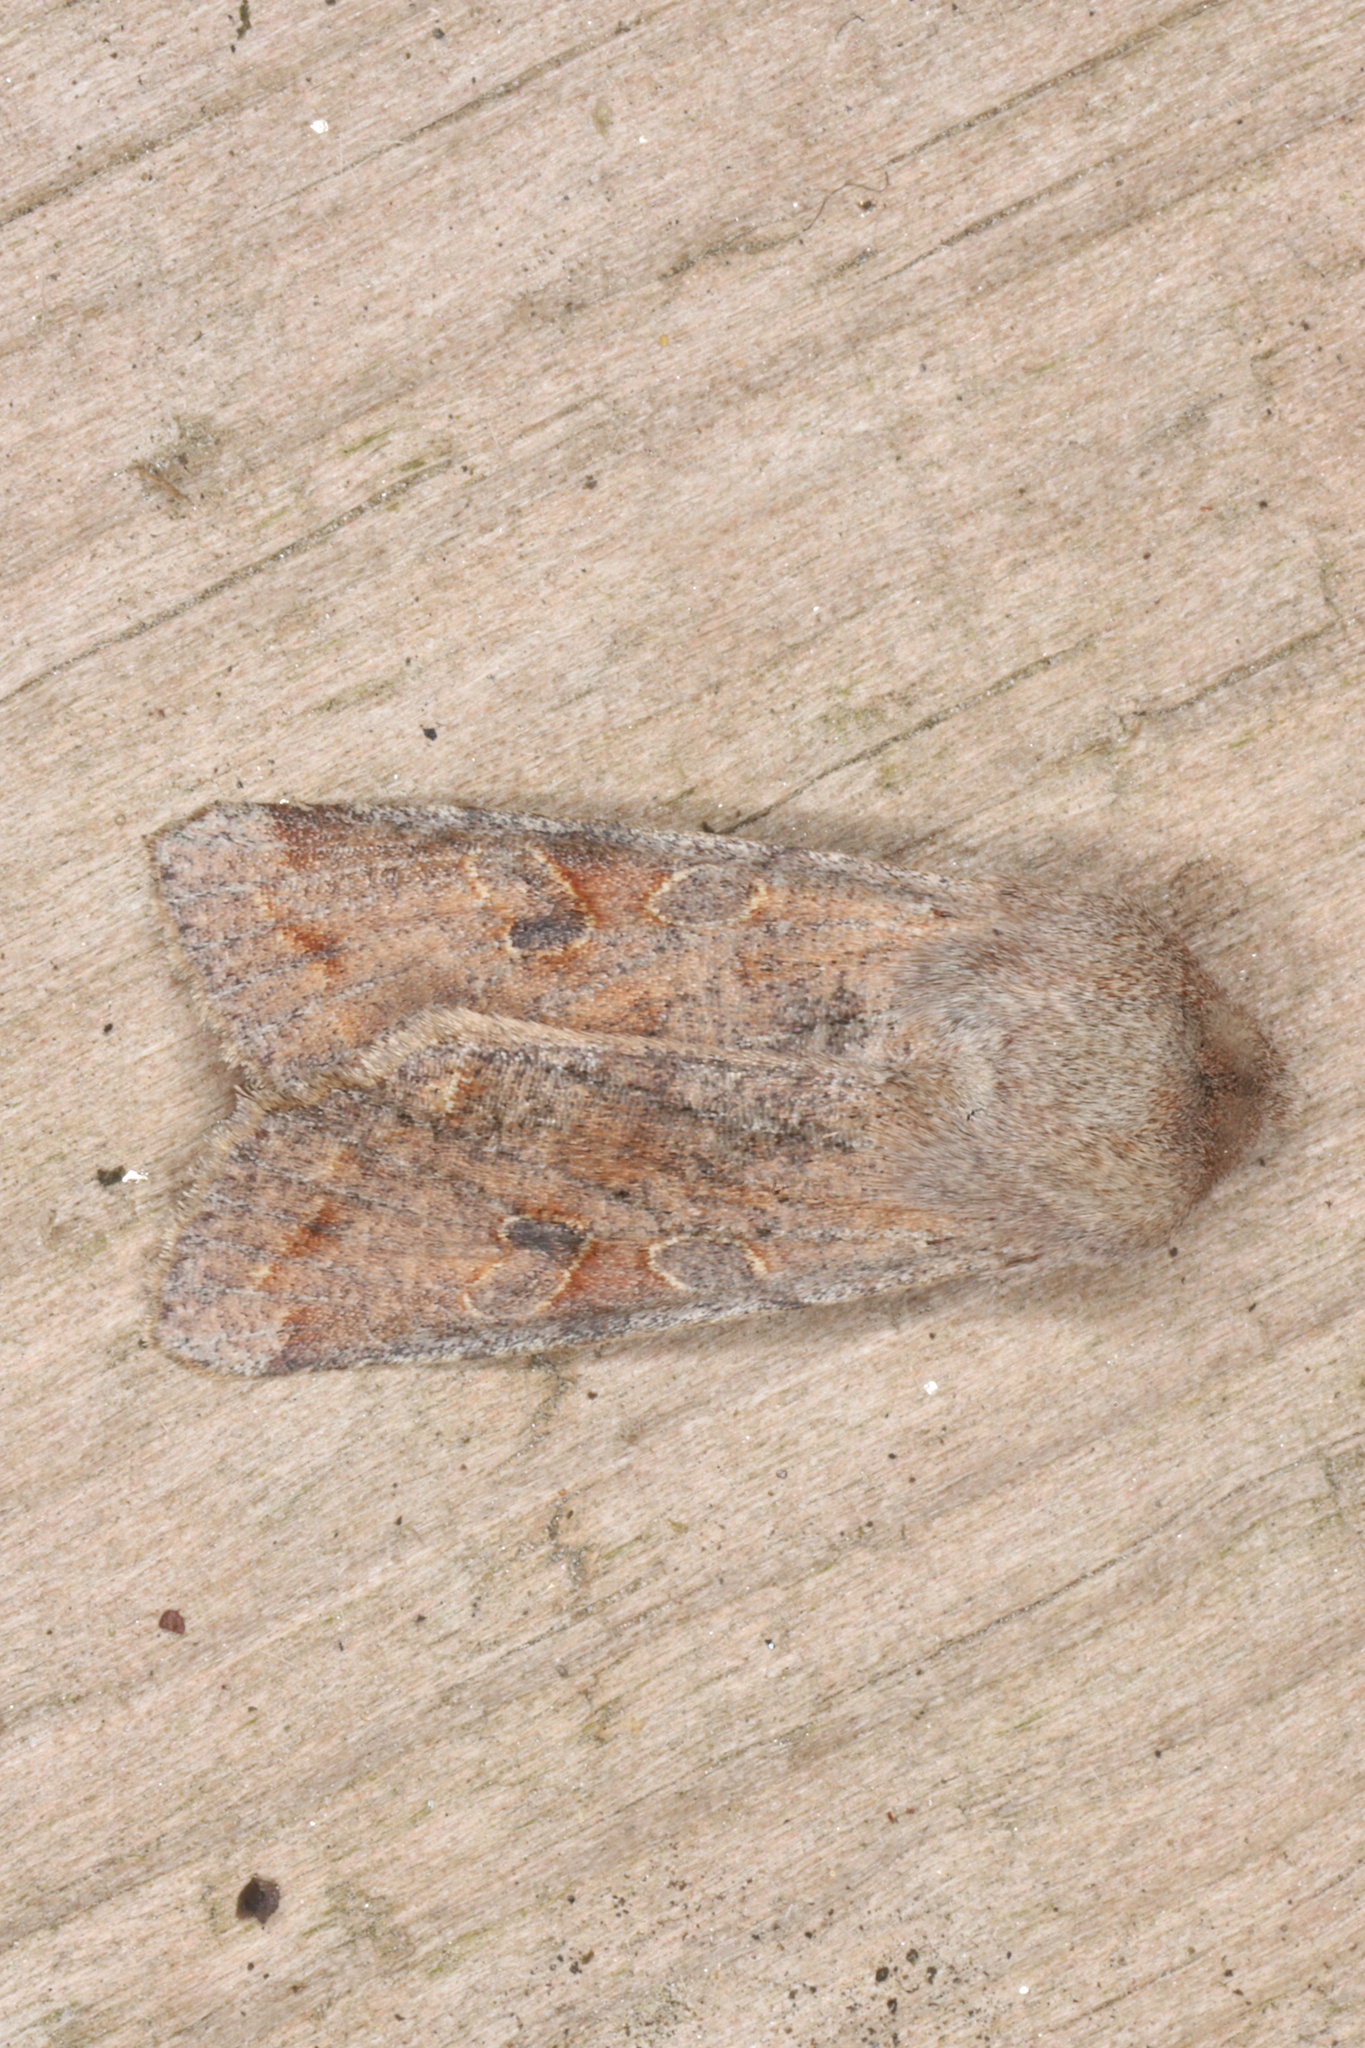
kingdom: Animalia
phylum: Arthropoda
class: Insecta
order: Lepidoptera
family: Noctuidae
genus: Orthosia
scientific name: Orthosia hibisci
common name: Green fruitworm
